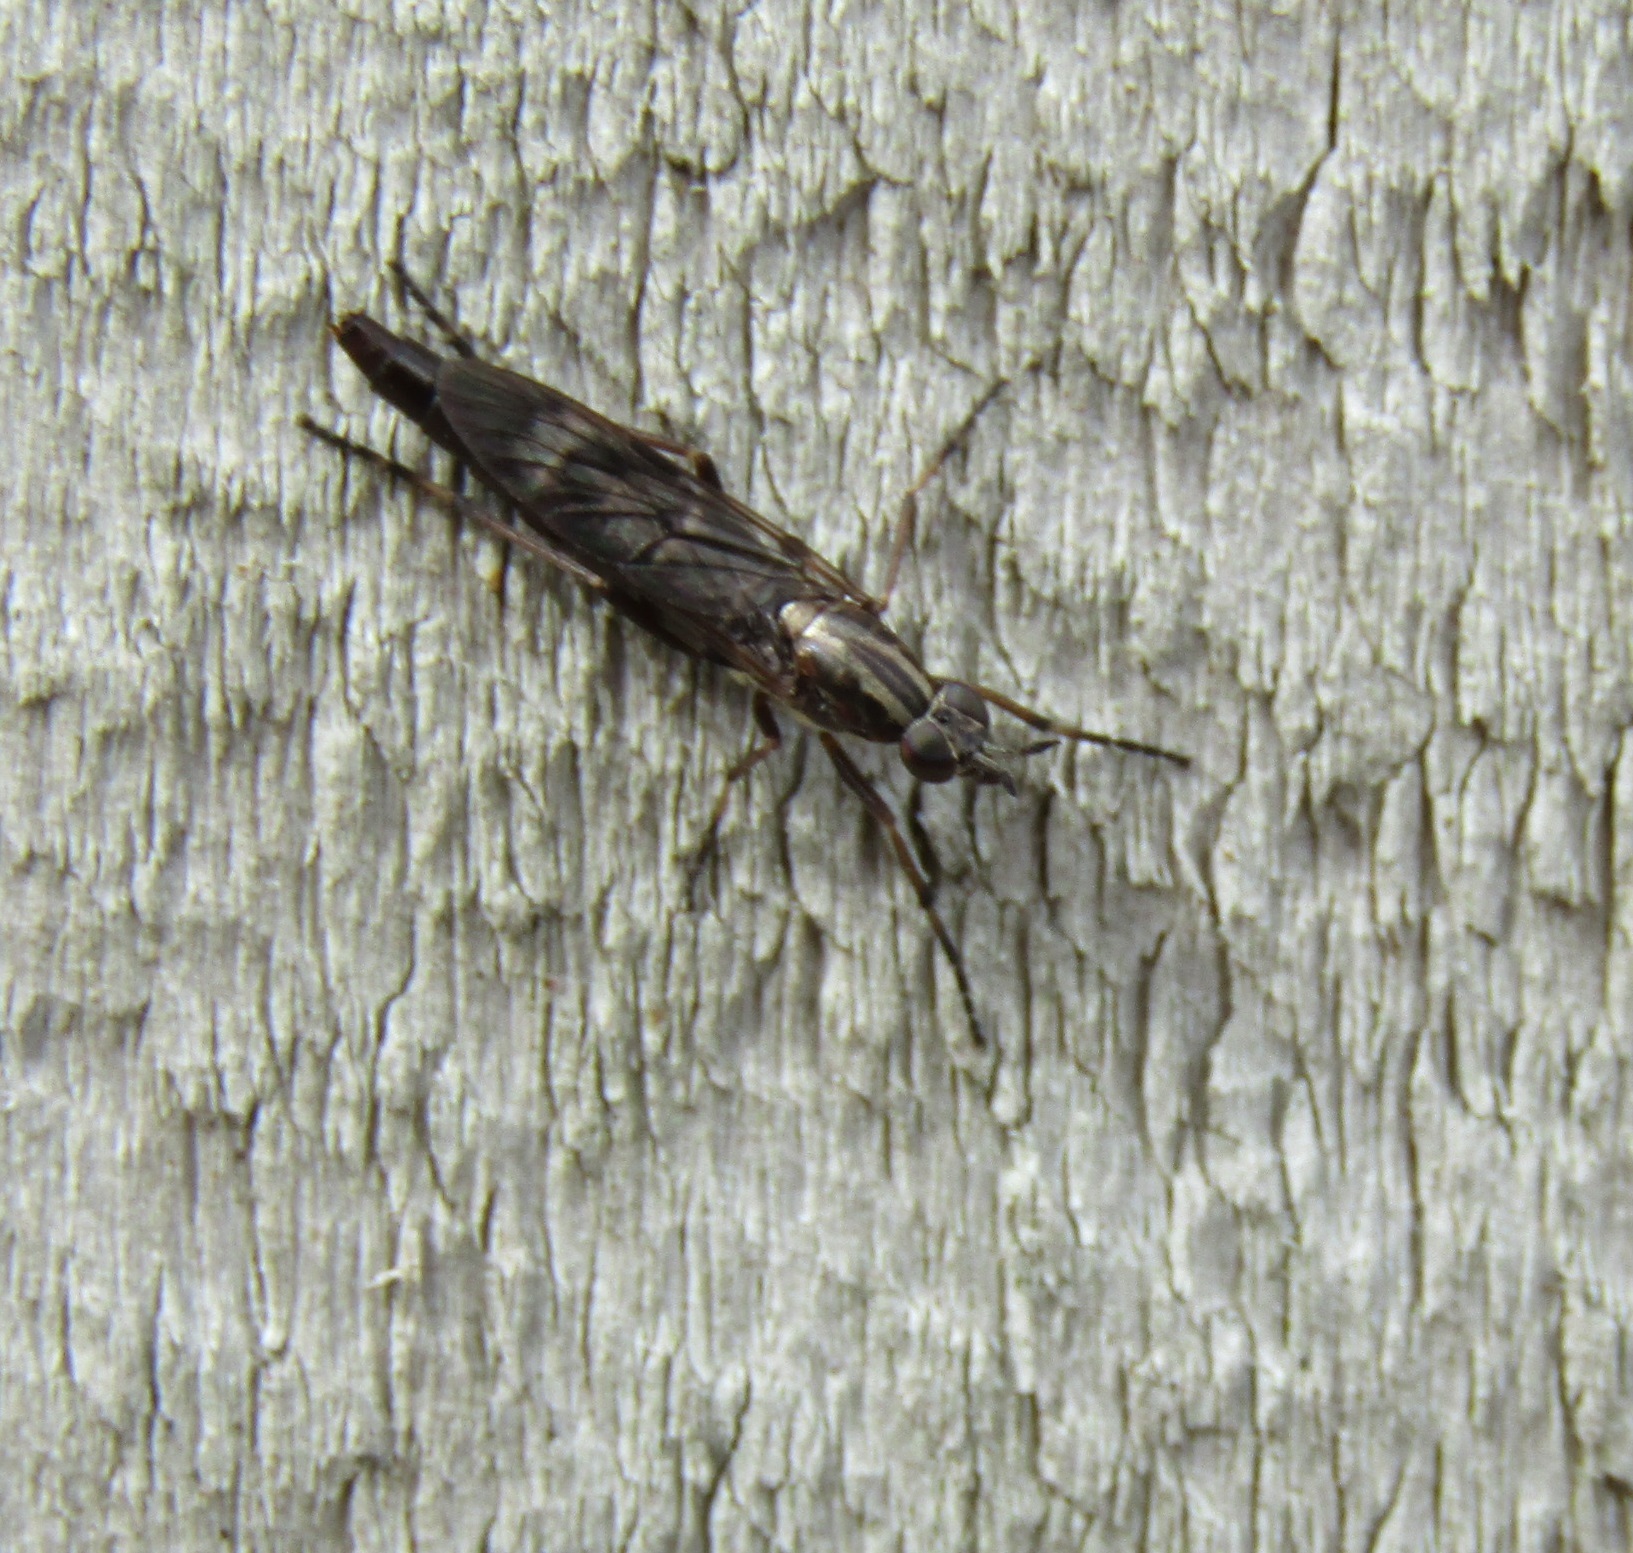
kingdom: Animalia
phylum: Arthropoda
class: Insecta
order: Diptera
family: Therevidae
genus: Anabarhynchus
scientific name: Anabarhynchus cupreus
